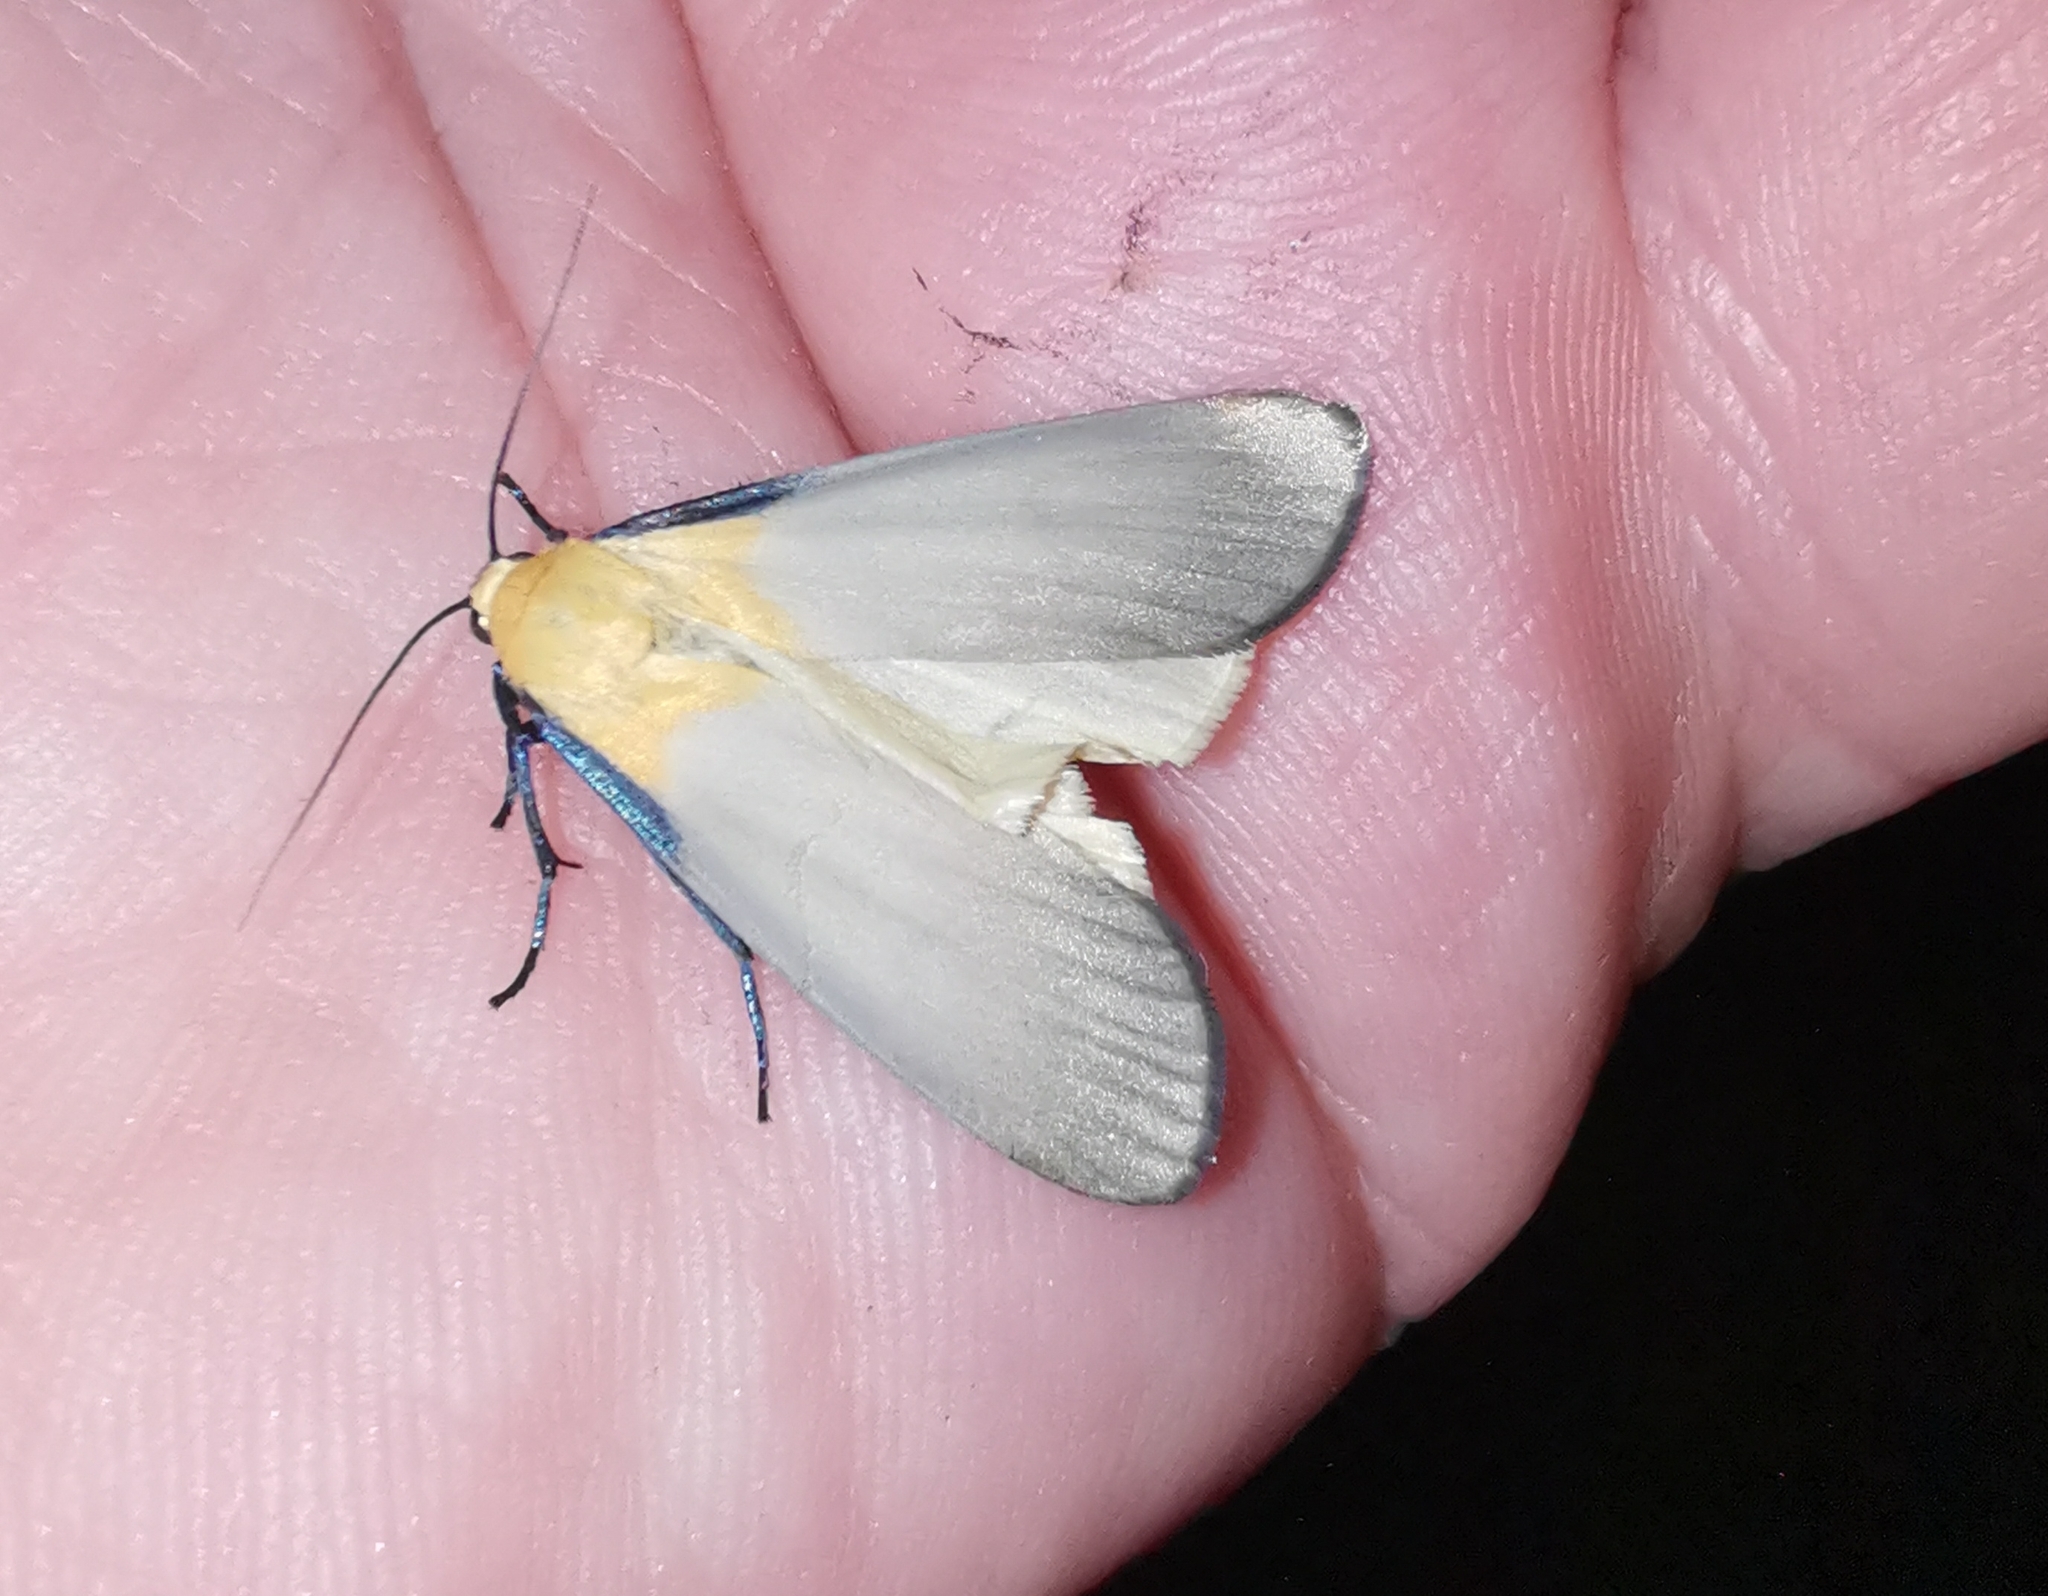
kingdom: Animalia
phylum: Arthropoda
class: Insecta
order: Lepidoptera
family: Erebidae
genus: Lithosia
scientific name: Lithosia quadra
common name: Four-spotted footman
